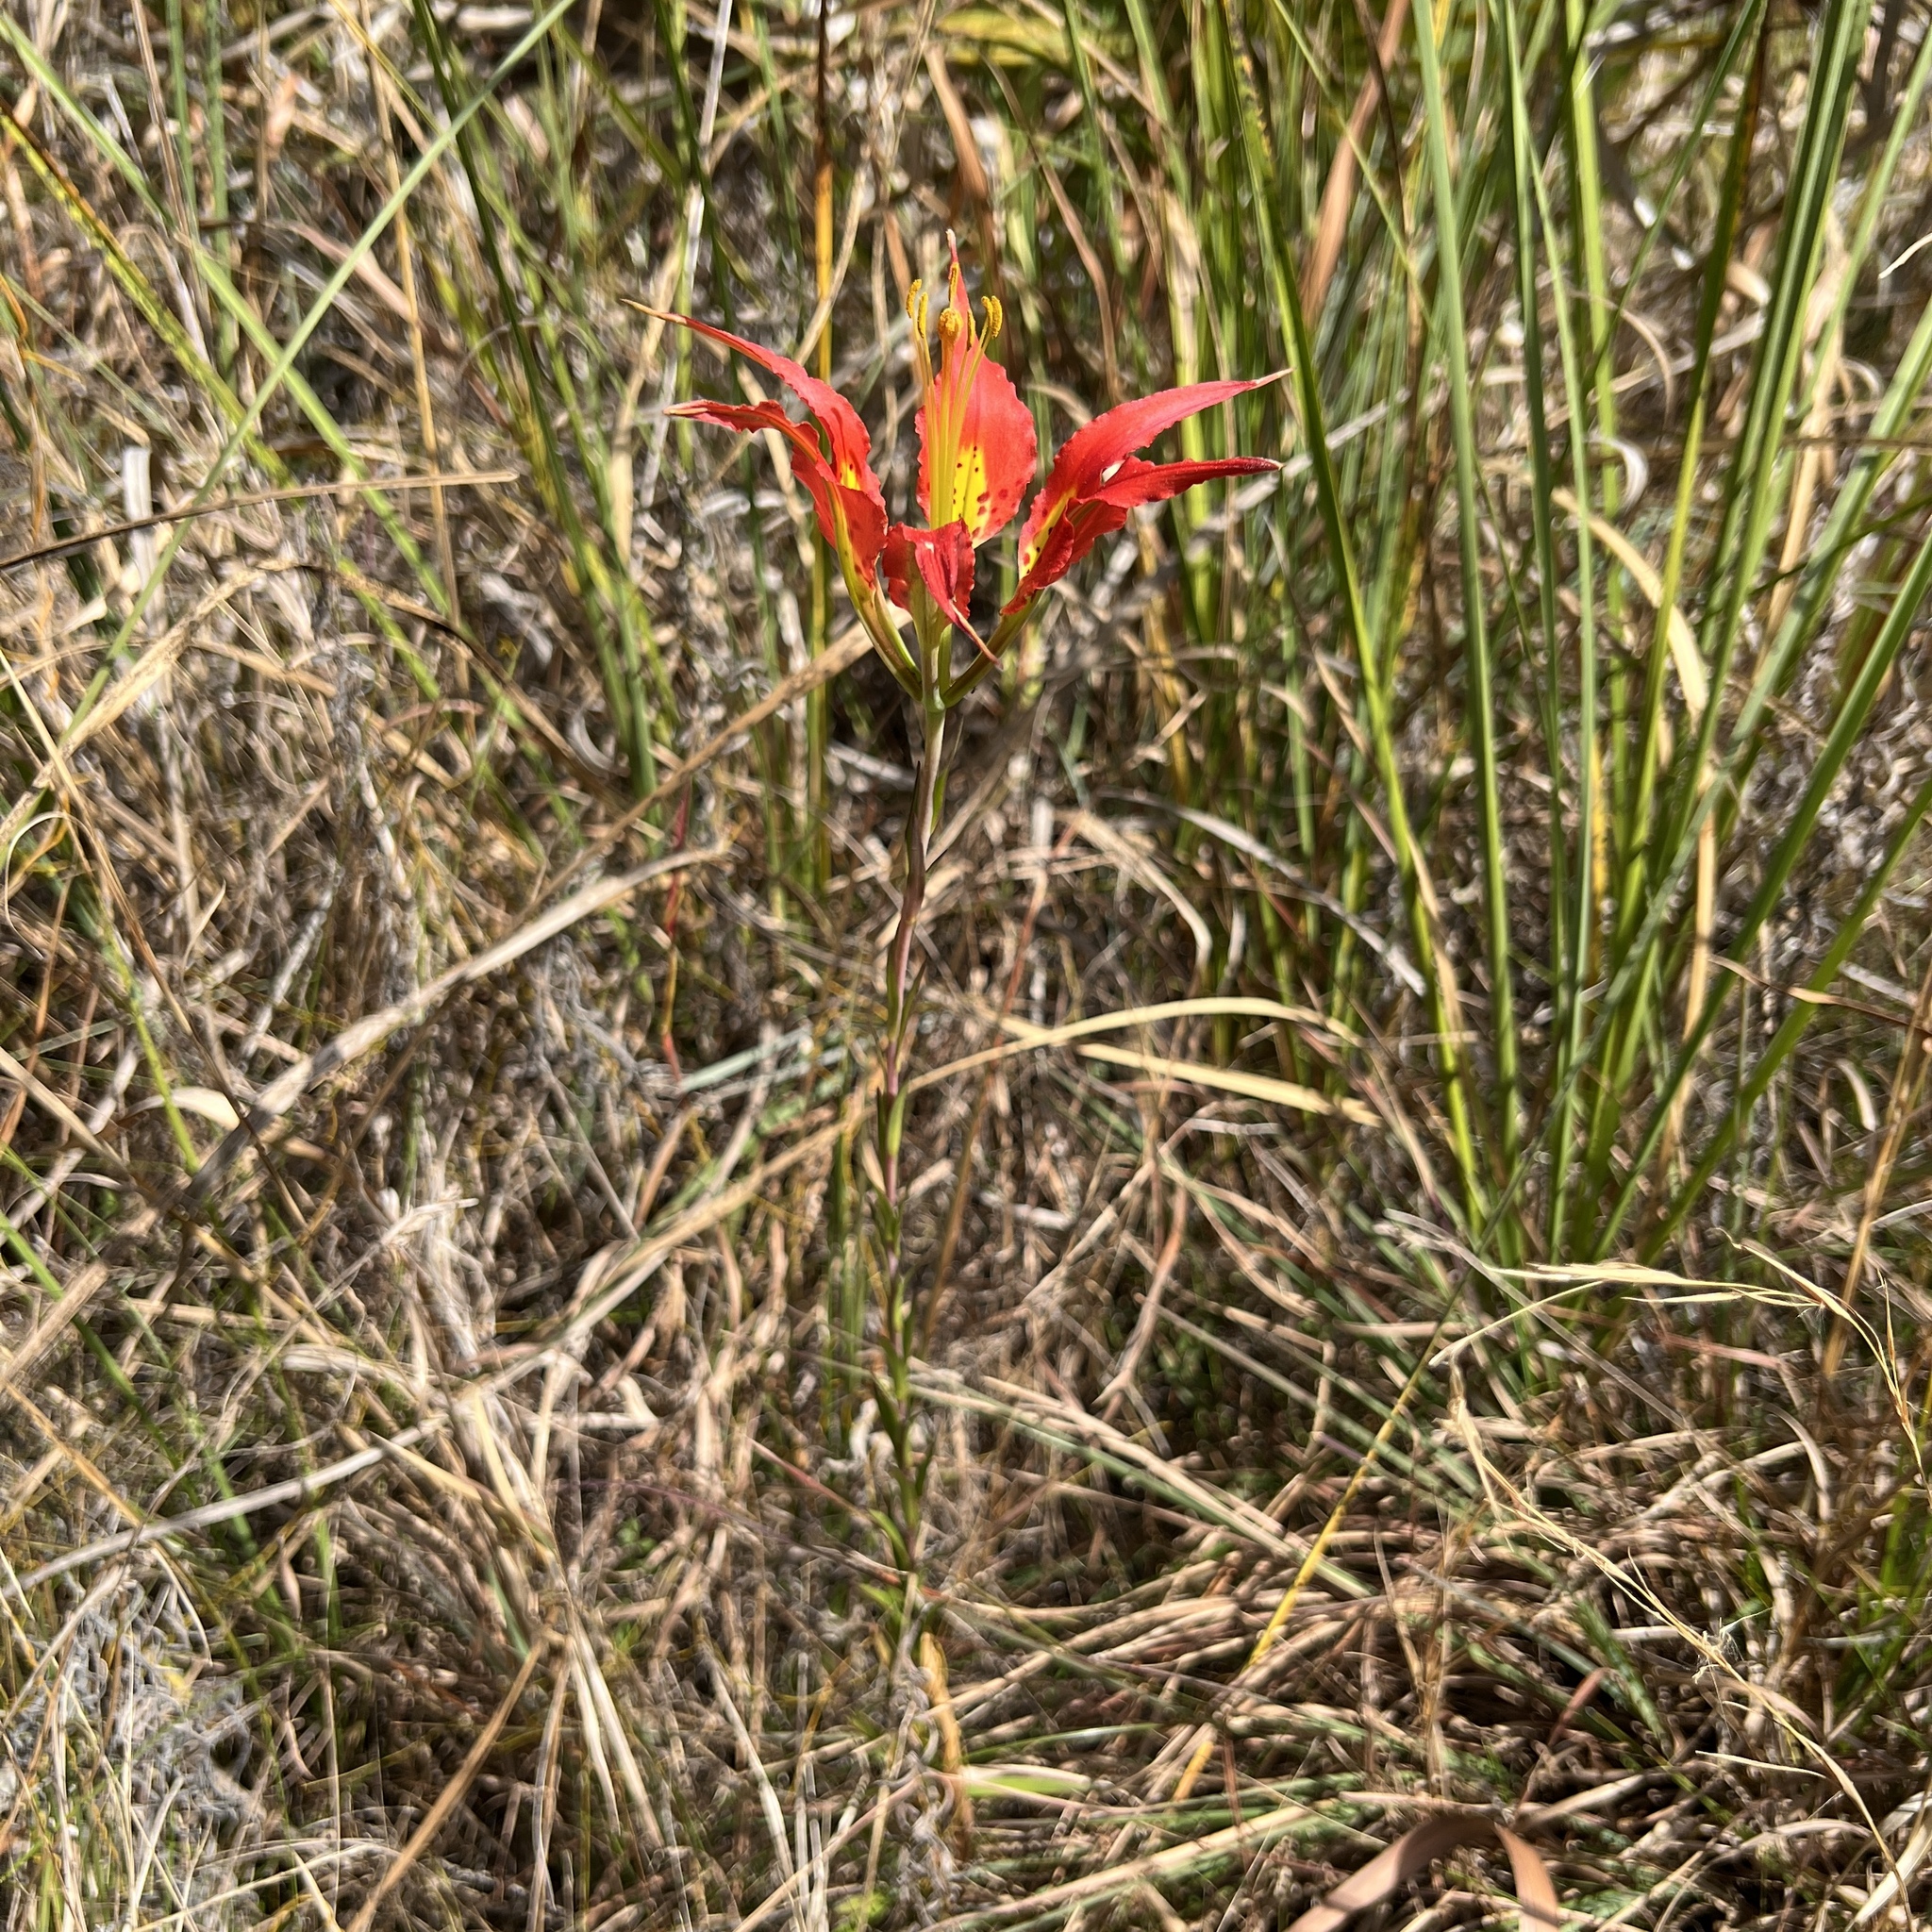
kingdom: Plantae
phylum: Tracheophyta
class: Liliopsida
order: Liliales
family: Liliaceae
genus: Lilium
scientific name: Lilium catesbaei
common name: Catesby's lily
